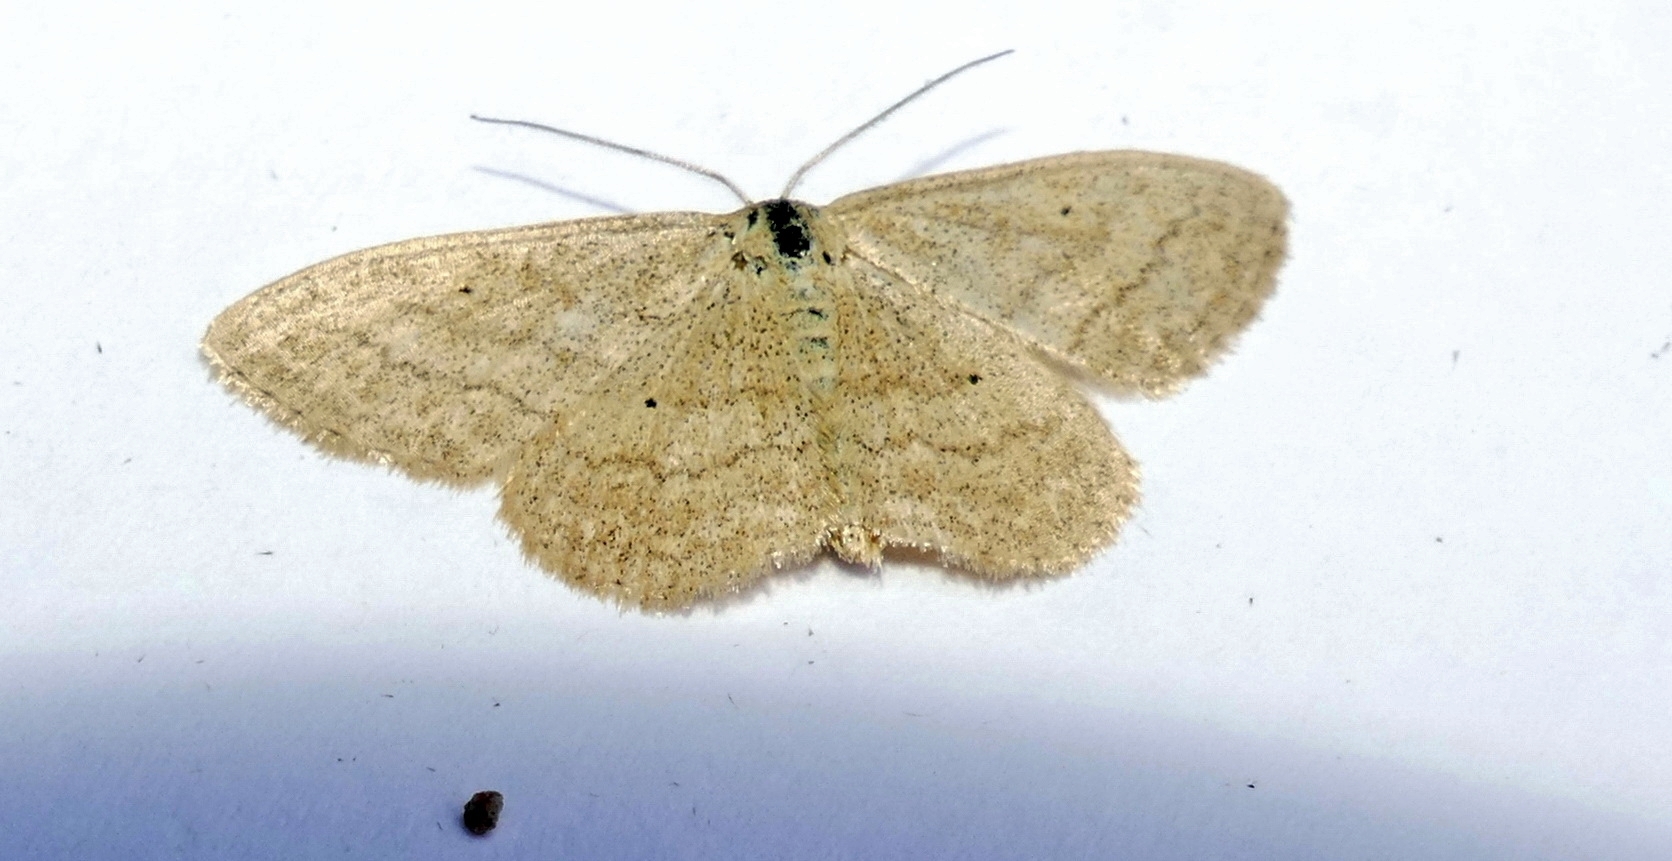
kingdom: Animalia
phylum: Arthropoda
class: Insecta
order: Lepidoptera
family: Geometridae
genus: Scopula
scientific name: Scopula inductata
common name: Soft-lined wave
